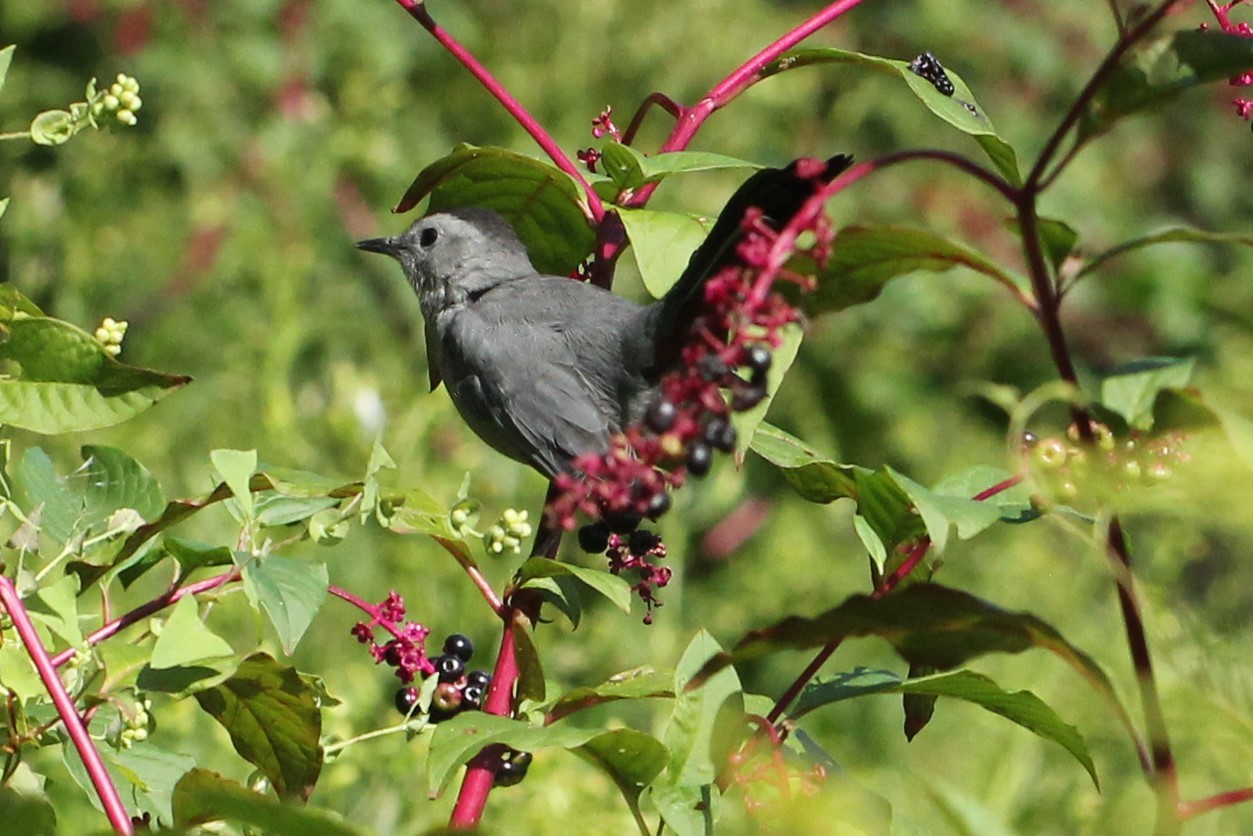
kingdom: Animalia
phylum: Chordata
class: Aves
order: Passeriformes
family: Mimidae
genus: Dumetella
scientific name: Dumetella carolinensis
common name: Gray catbird
